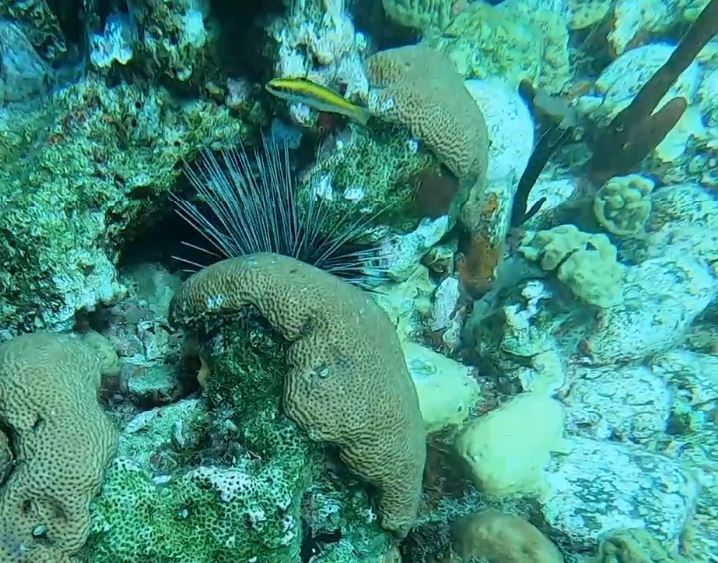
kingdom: Animalia
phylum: Chordata
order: Perciformes
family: Labridae
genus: Thalassoma
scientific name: Thalassoma bifasciatum
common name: Bluehead wrasse
